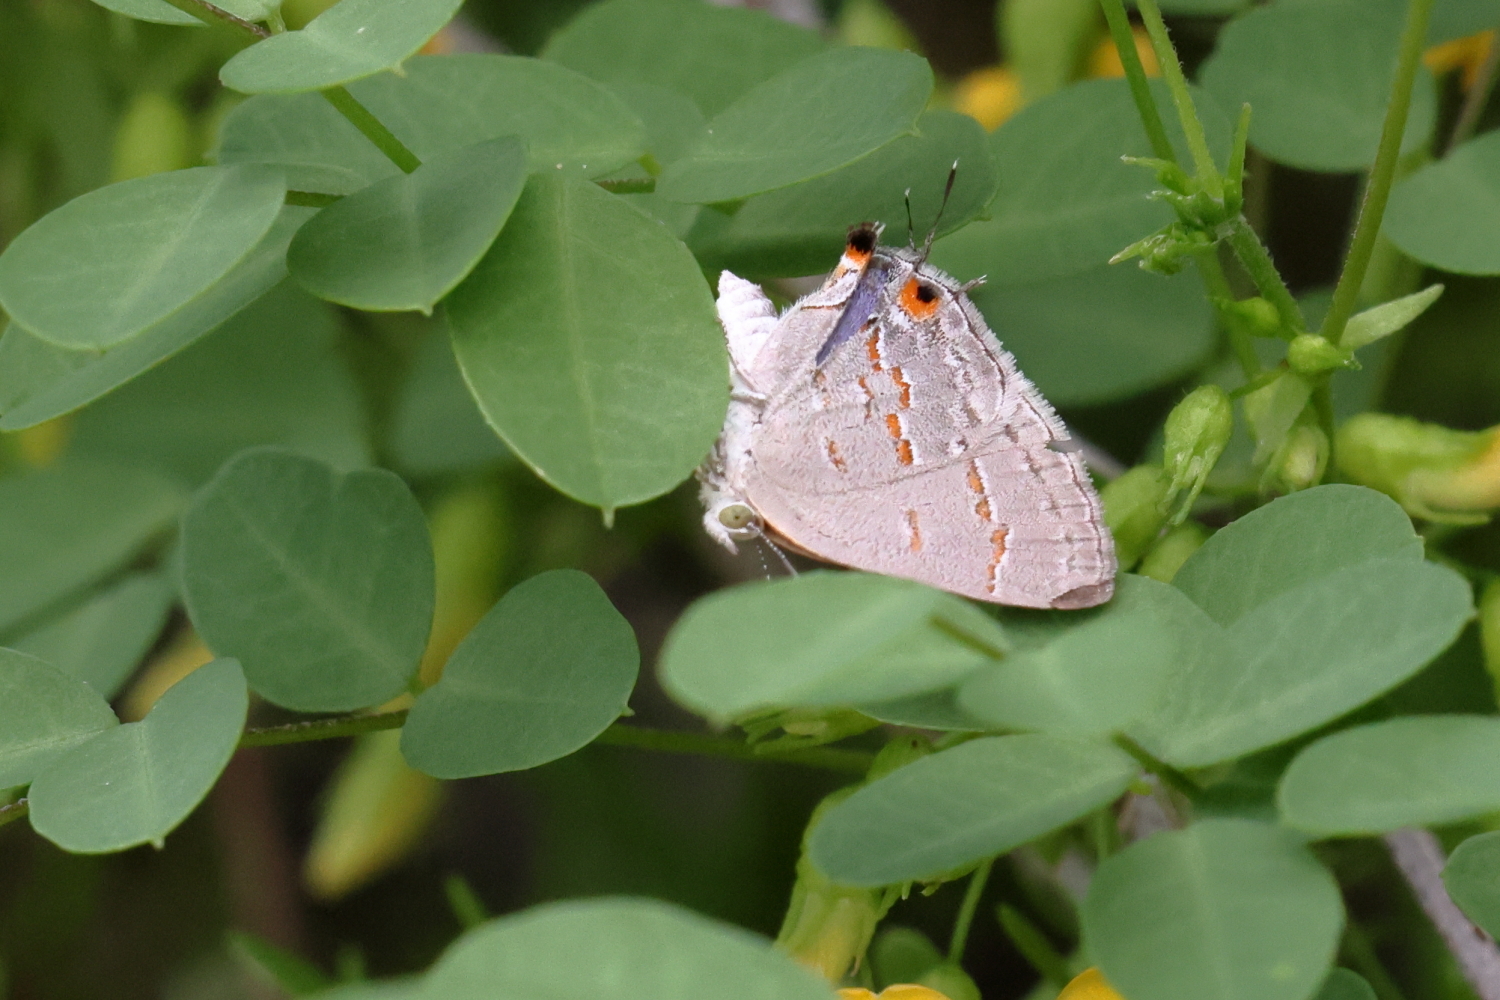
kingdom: Animalia
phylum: Arthropoda
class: Insecta
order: Lepidoptera
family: Lycaenidae
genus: Ministrymon
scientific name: Ministrymon leda
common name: Leda ministreak
